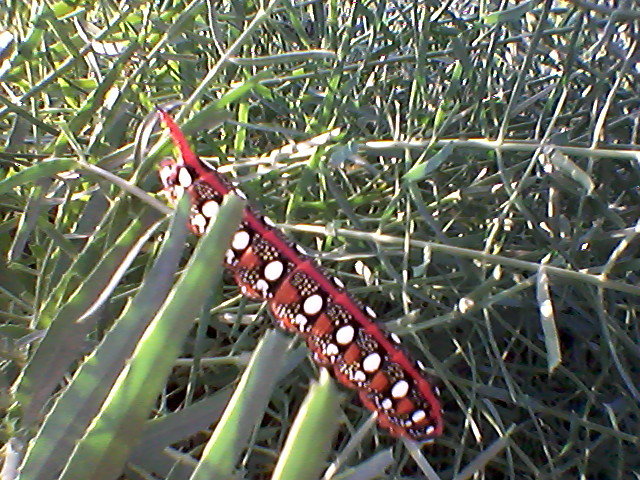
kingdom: Animalia
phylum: Arthropoda
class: Insecta
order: Lepidoptera
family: Sphingidae
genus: Hyles
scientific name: Hyles euphorbiae
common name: Spurge hawk-moth
